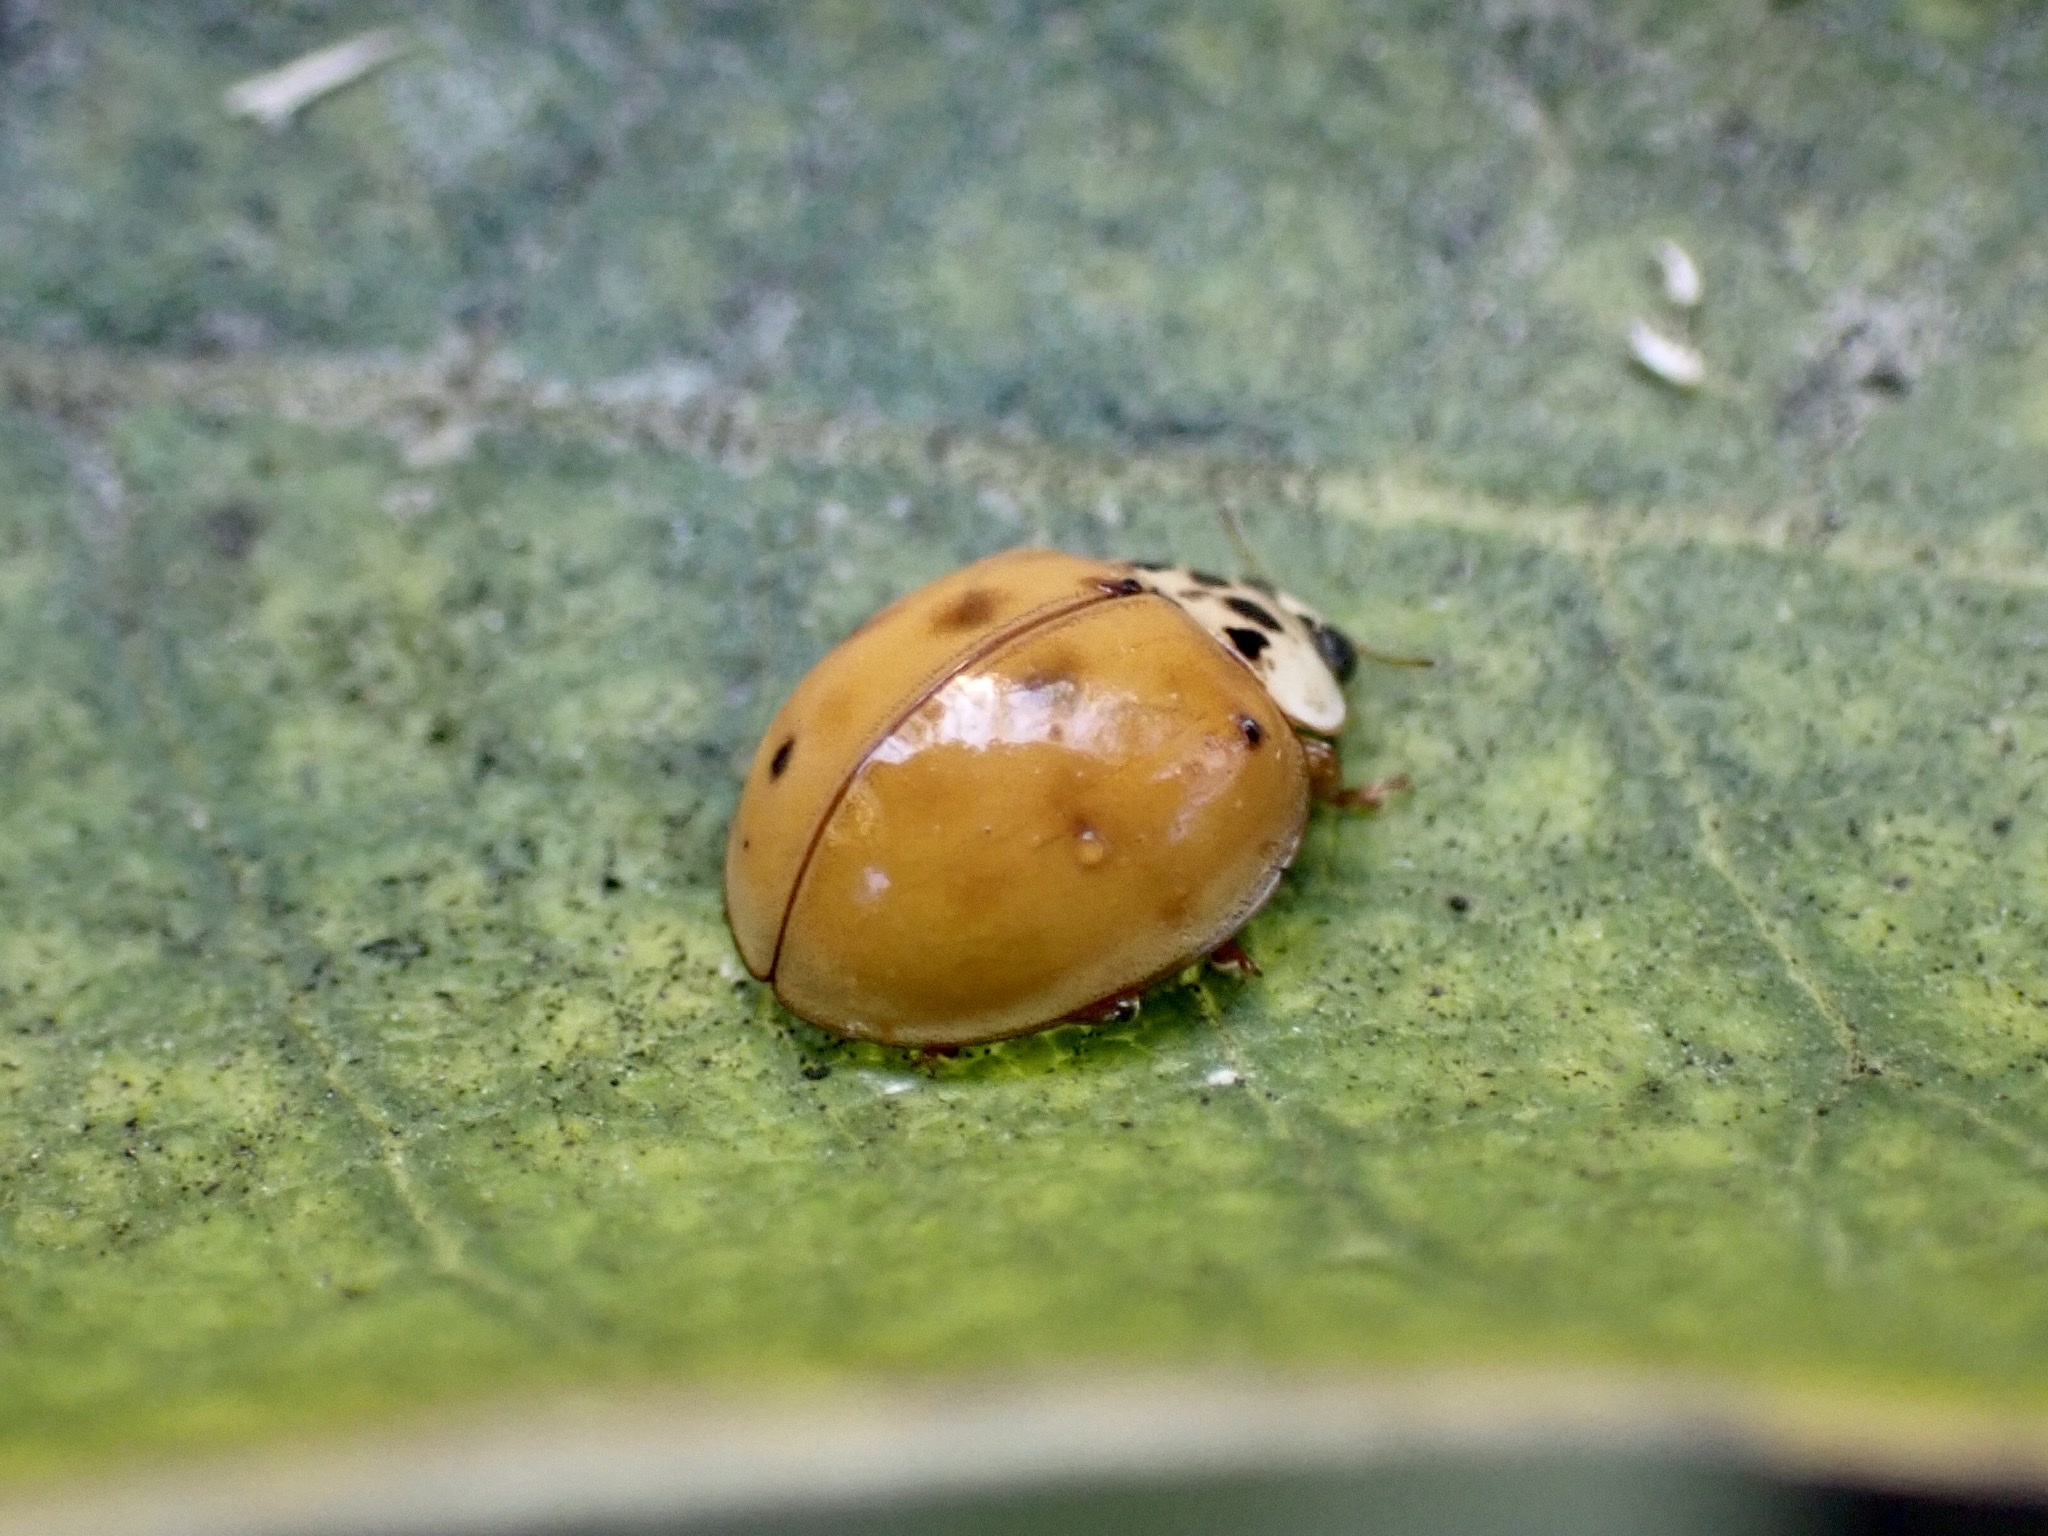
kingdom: Animalia
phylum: Arthropoda
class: Insecta
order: Coleoptera
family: Coccinellidae
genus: Harmonia
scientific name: Harmonia axyridis
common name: Harlequin ladybird
